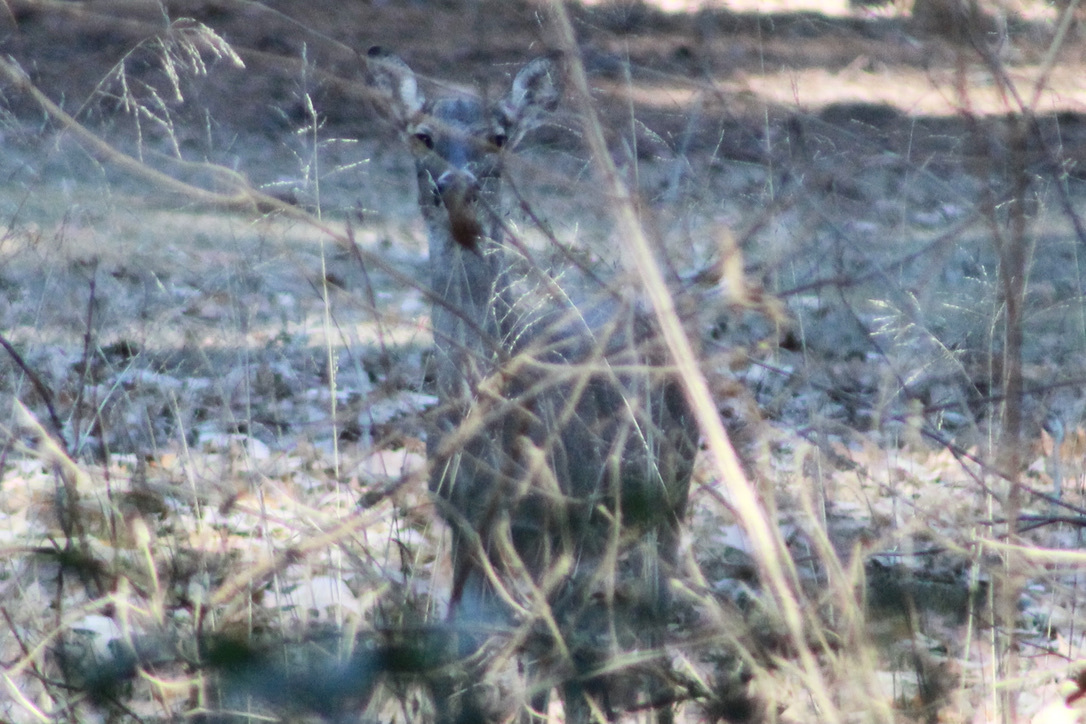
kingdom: Animalia
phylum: Chordata
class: Mammalia
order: Artiodactyla
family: Cervidae
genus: Odocoileus
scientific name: Odocoileus virginianus
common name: White-tailed deer
